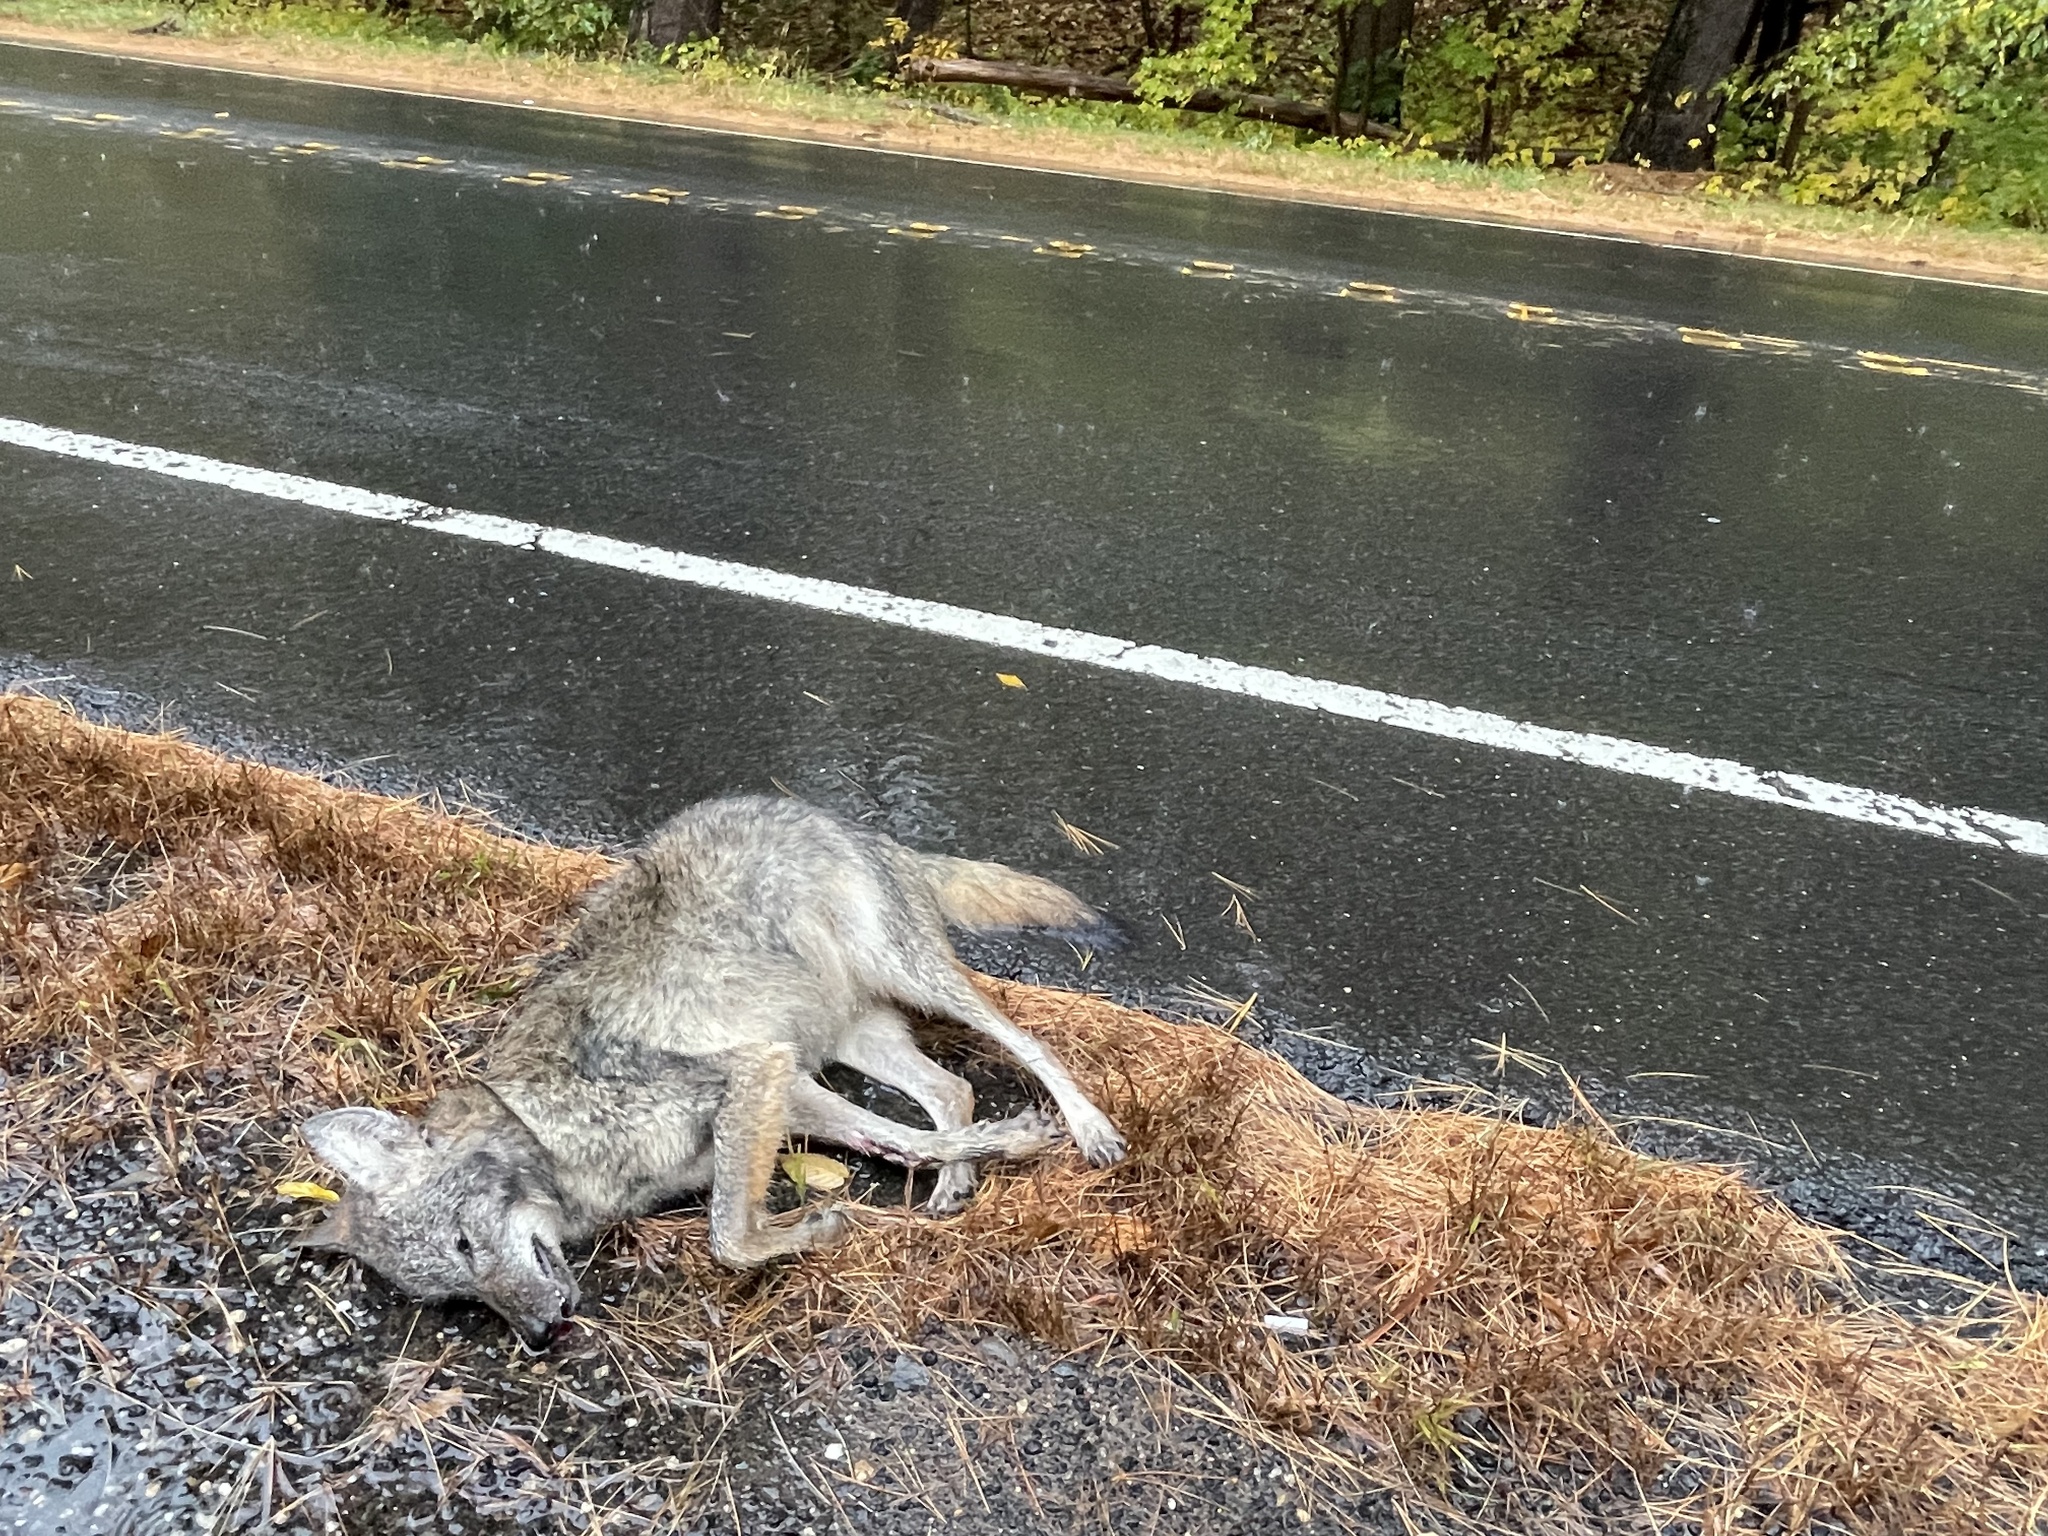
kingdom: Animalia
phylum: Chordata
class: Mammalia
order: Carnivora
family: Canidae
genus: Canis
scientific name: Canis latrans
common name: Coyote
